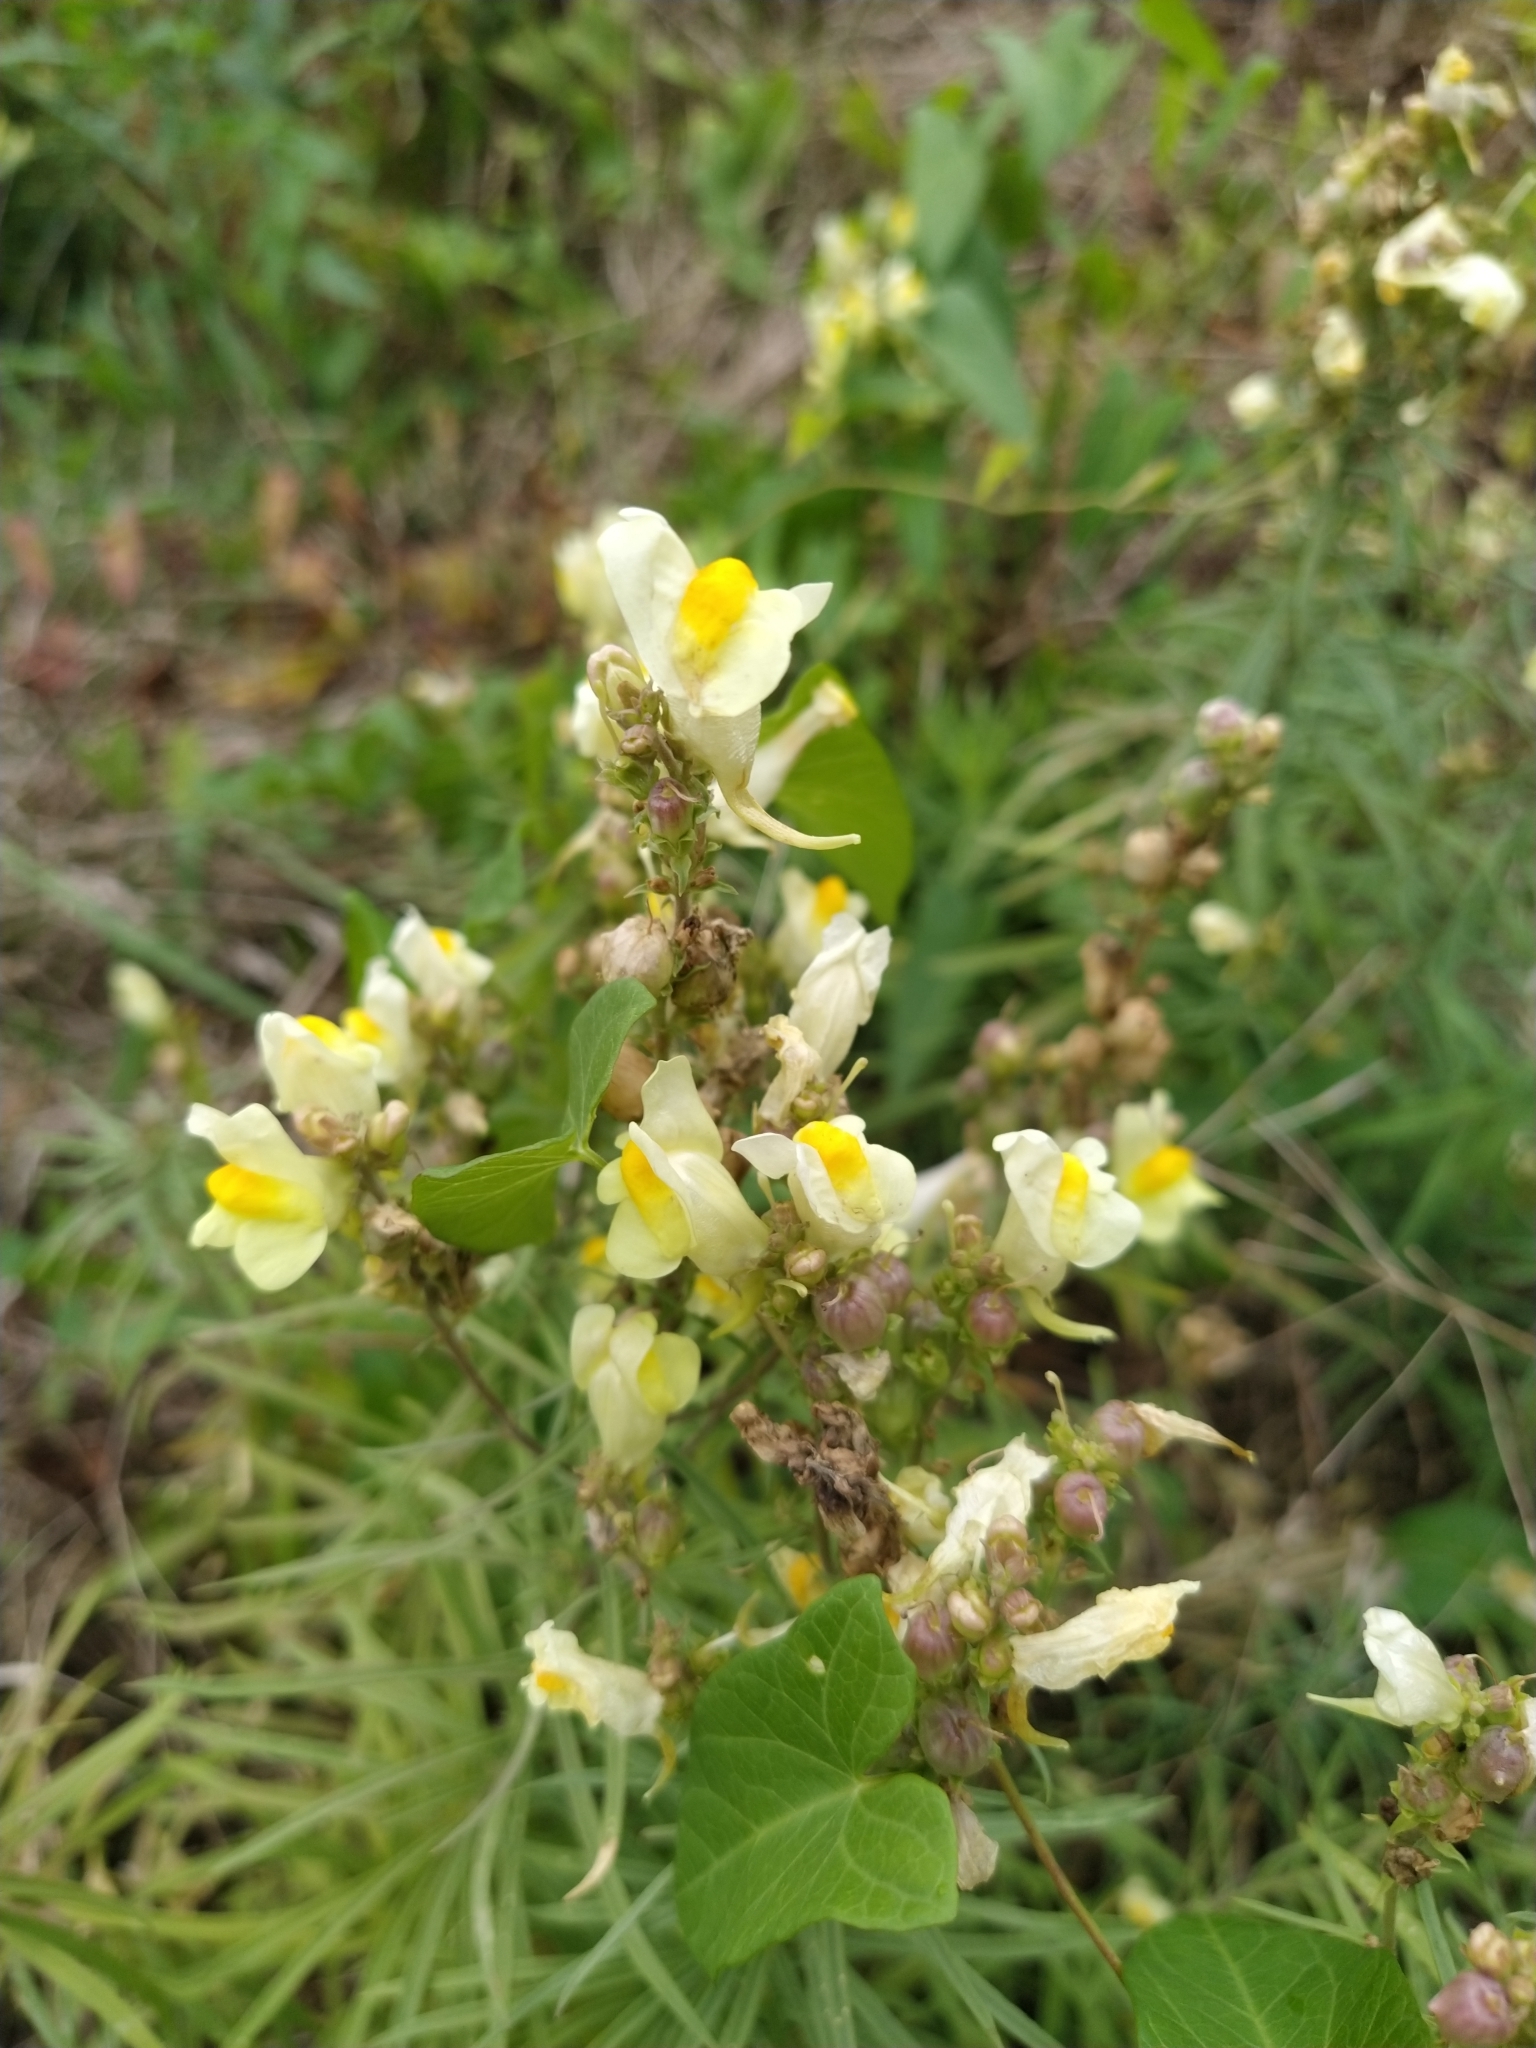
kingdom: Plantae
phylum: Tracheophyta
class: Magnoliopsida
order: Lamiales
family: Plantaginaceae
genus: Linaria
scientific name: Linaria vulgaris
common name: Butter and eggs
